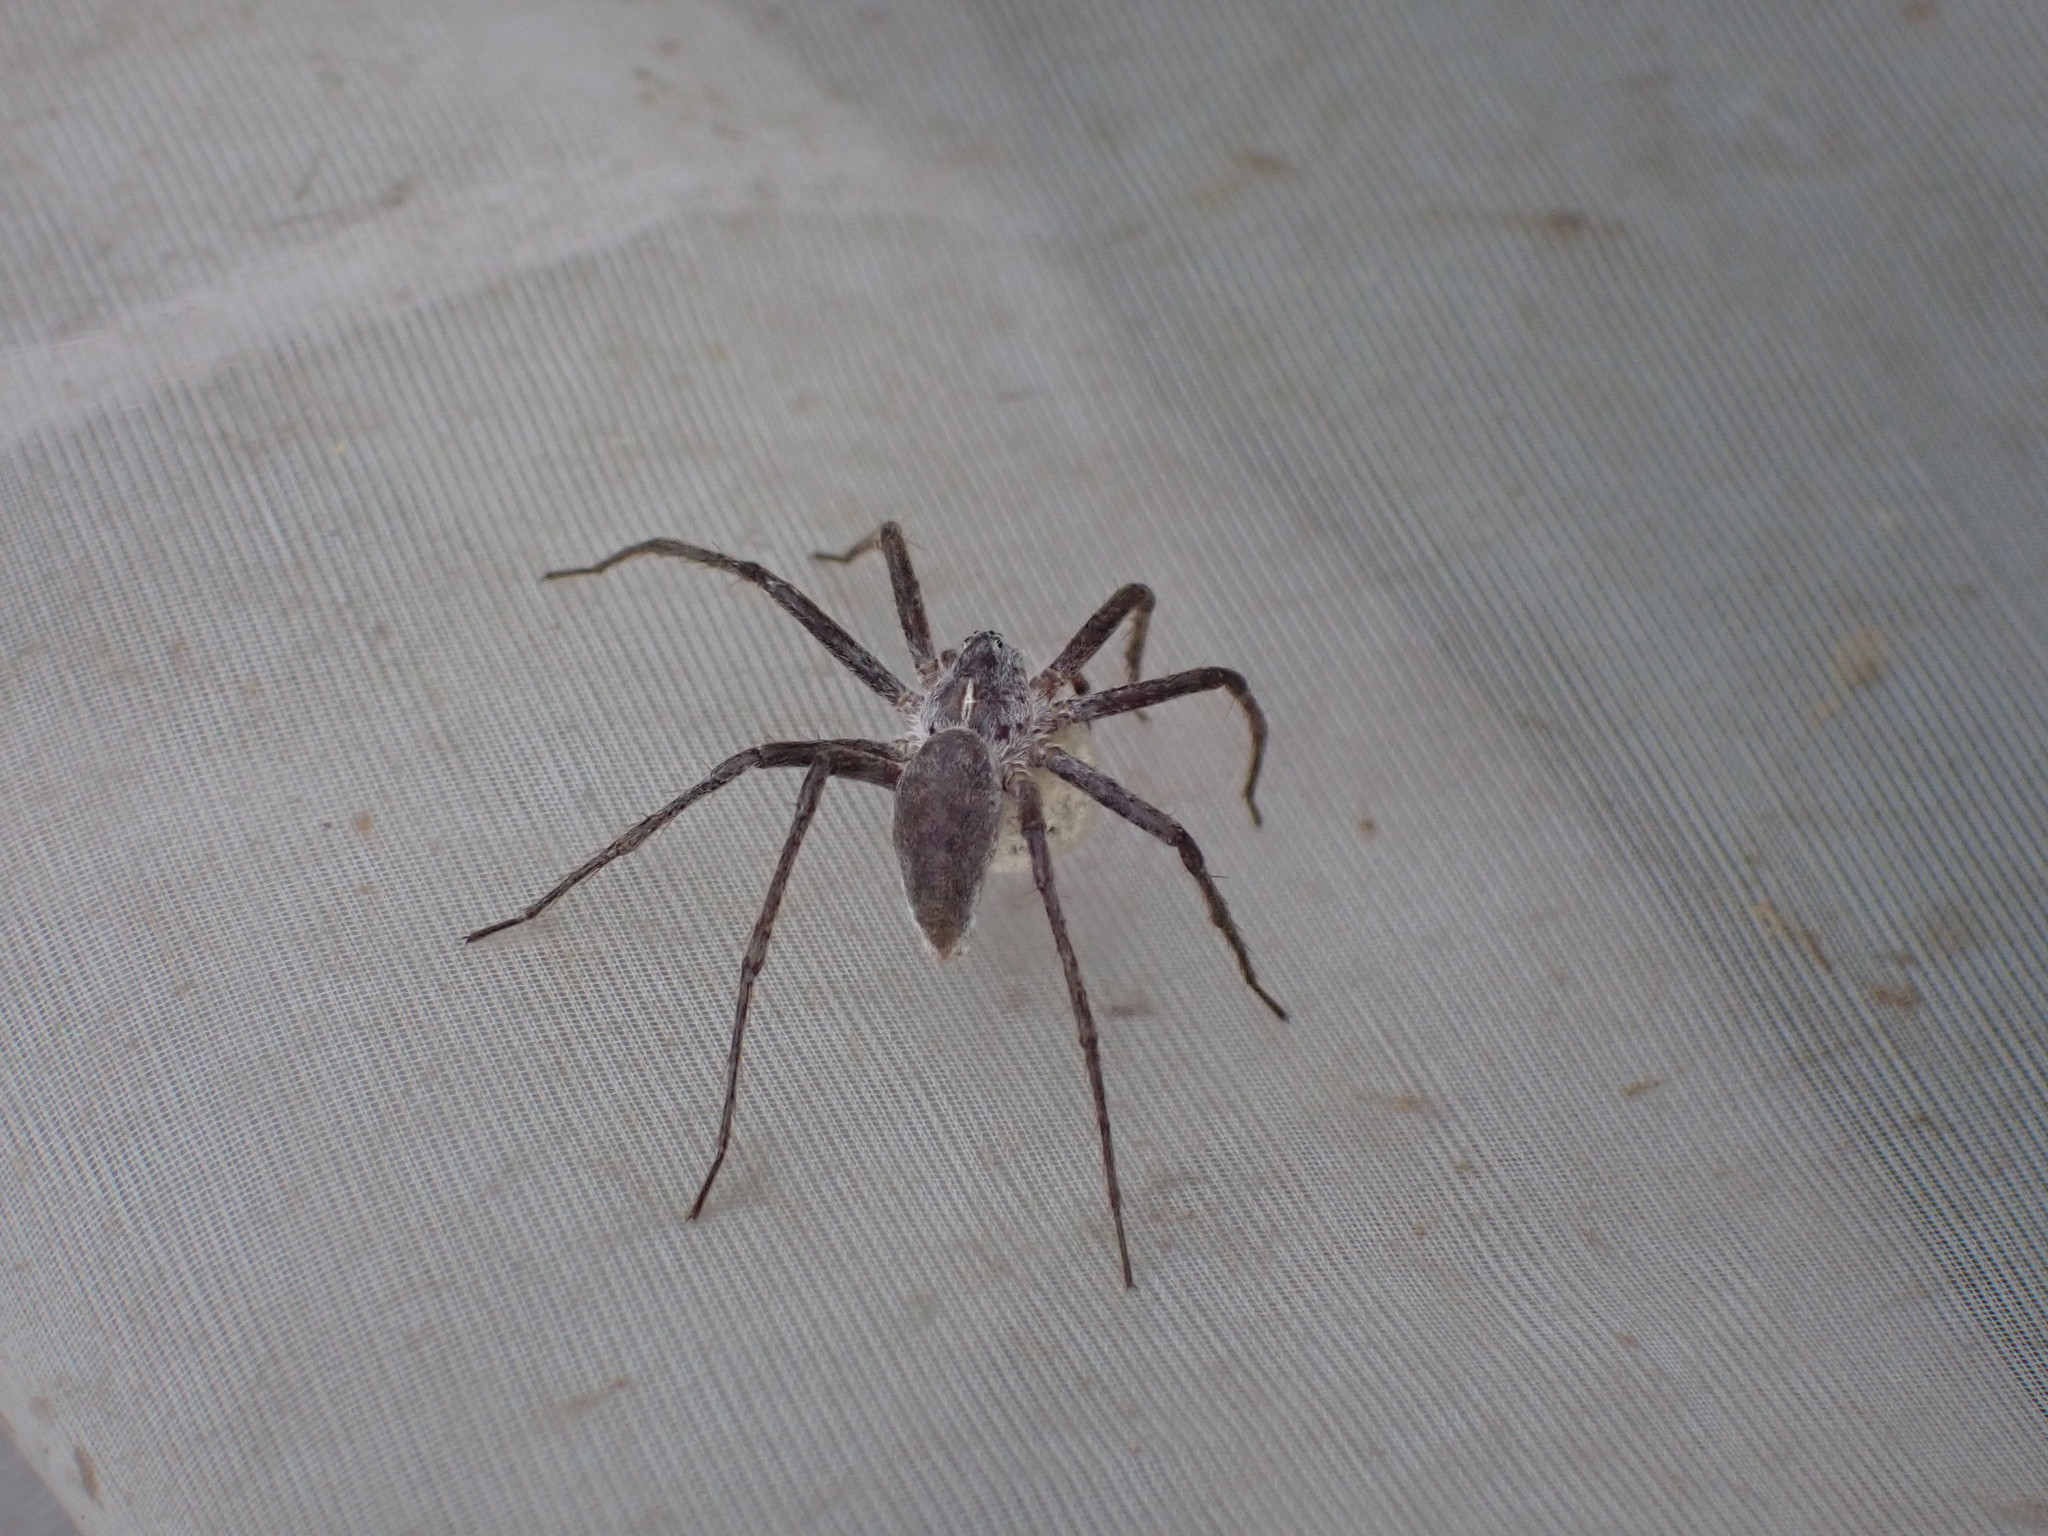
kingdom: Animalia
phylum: Arthropoda
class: Arachnida
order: Araneae
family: Pisauridae
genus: Pisaura
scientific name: Pisaura mirabilis
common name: Tent spider
